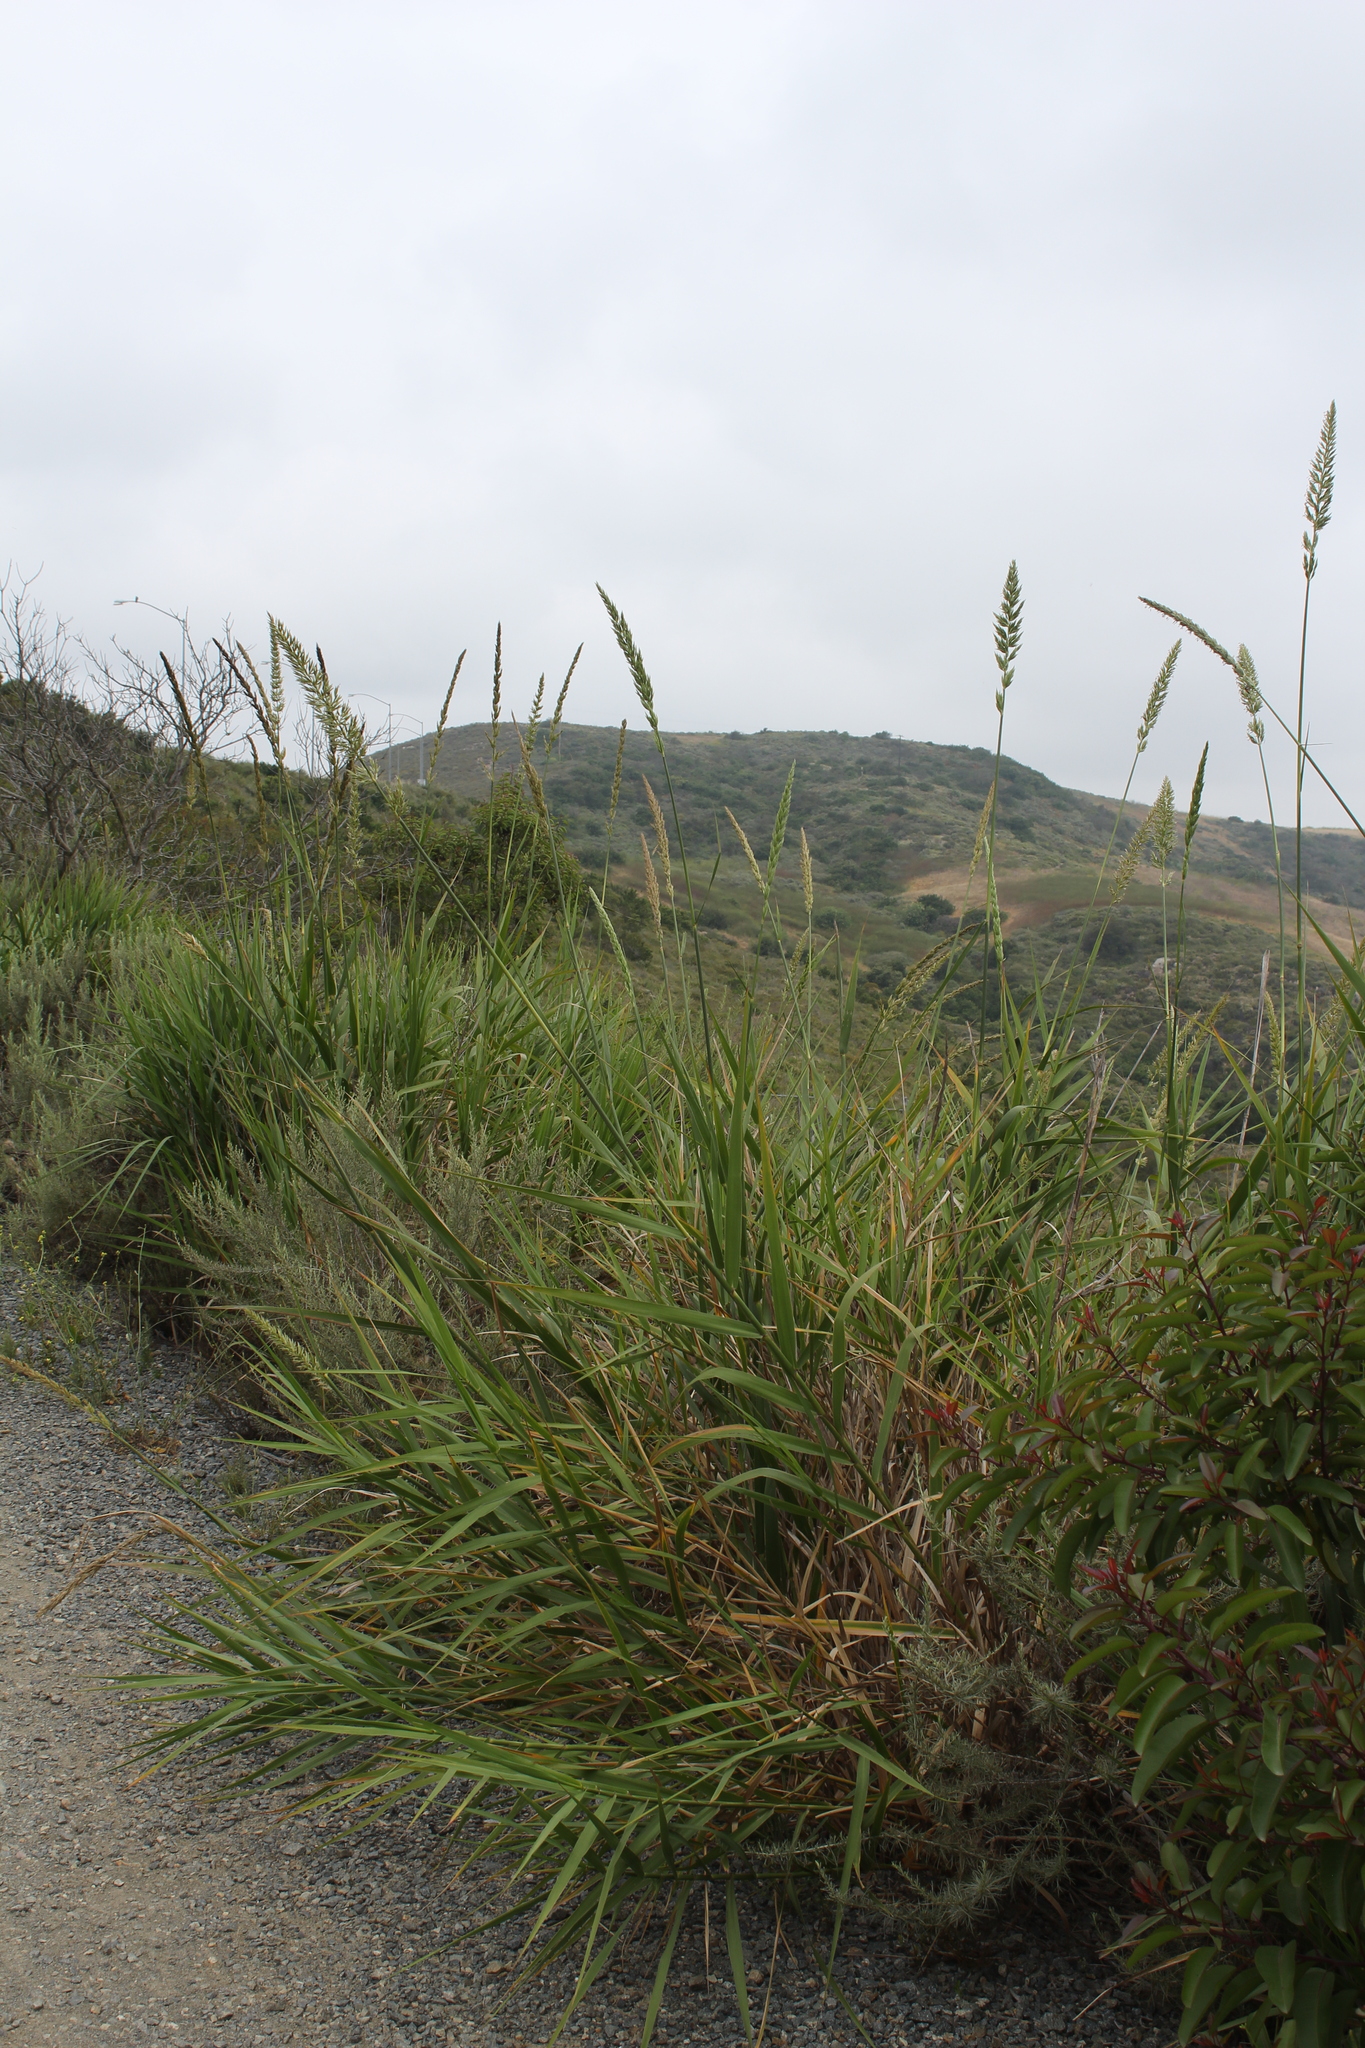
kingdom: Plantae
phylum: Tracheophyta
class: Liliopsida
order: Poales
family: Poaceae
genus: Leymus
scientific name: Leymus condensatus
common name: Giant wild rye
